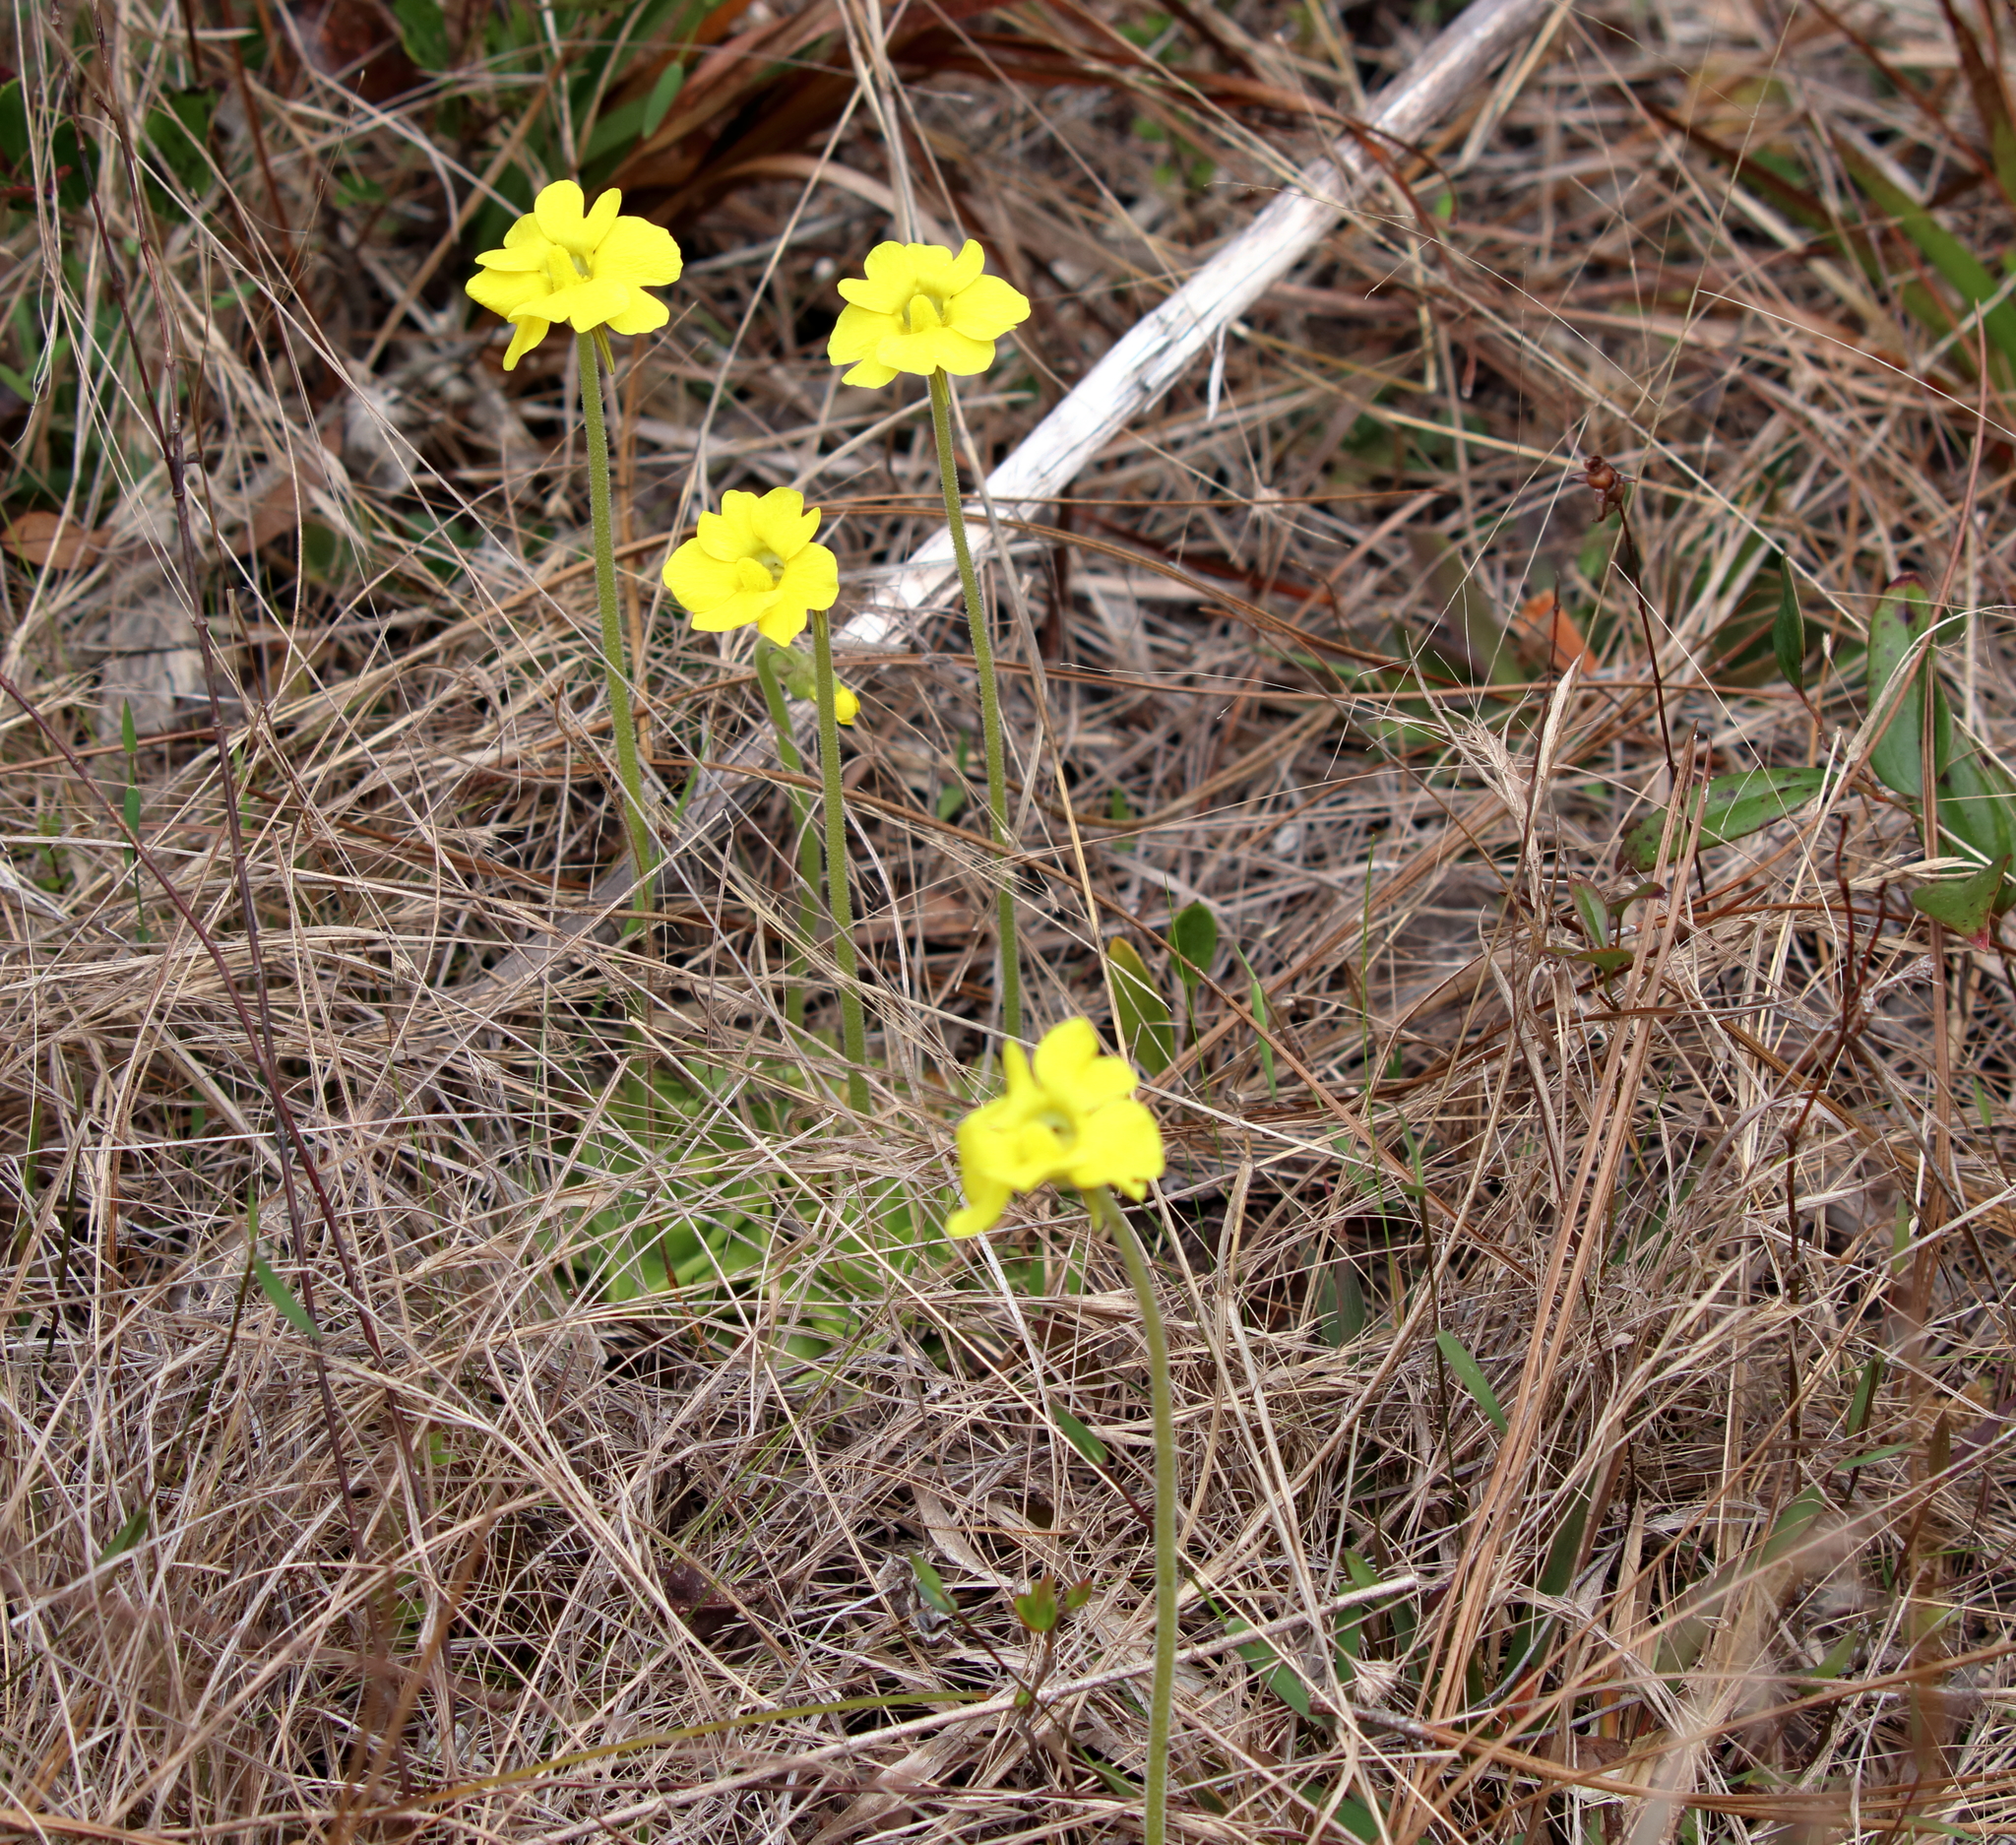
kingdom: Plantae
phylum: Tracheophyta
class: Magnoliopsida
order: Lamiales
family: Lentibulariaceae
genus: Pinguicula
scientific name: Pinguicula lutea
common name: Yellow butterwort
